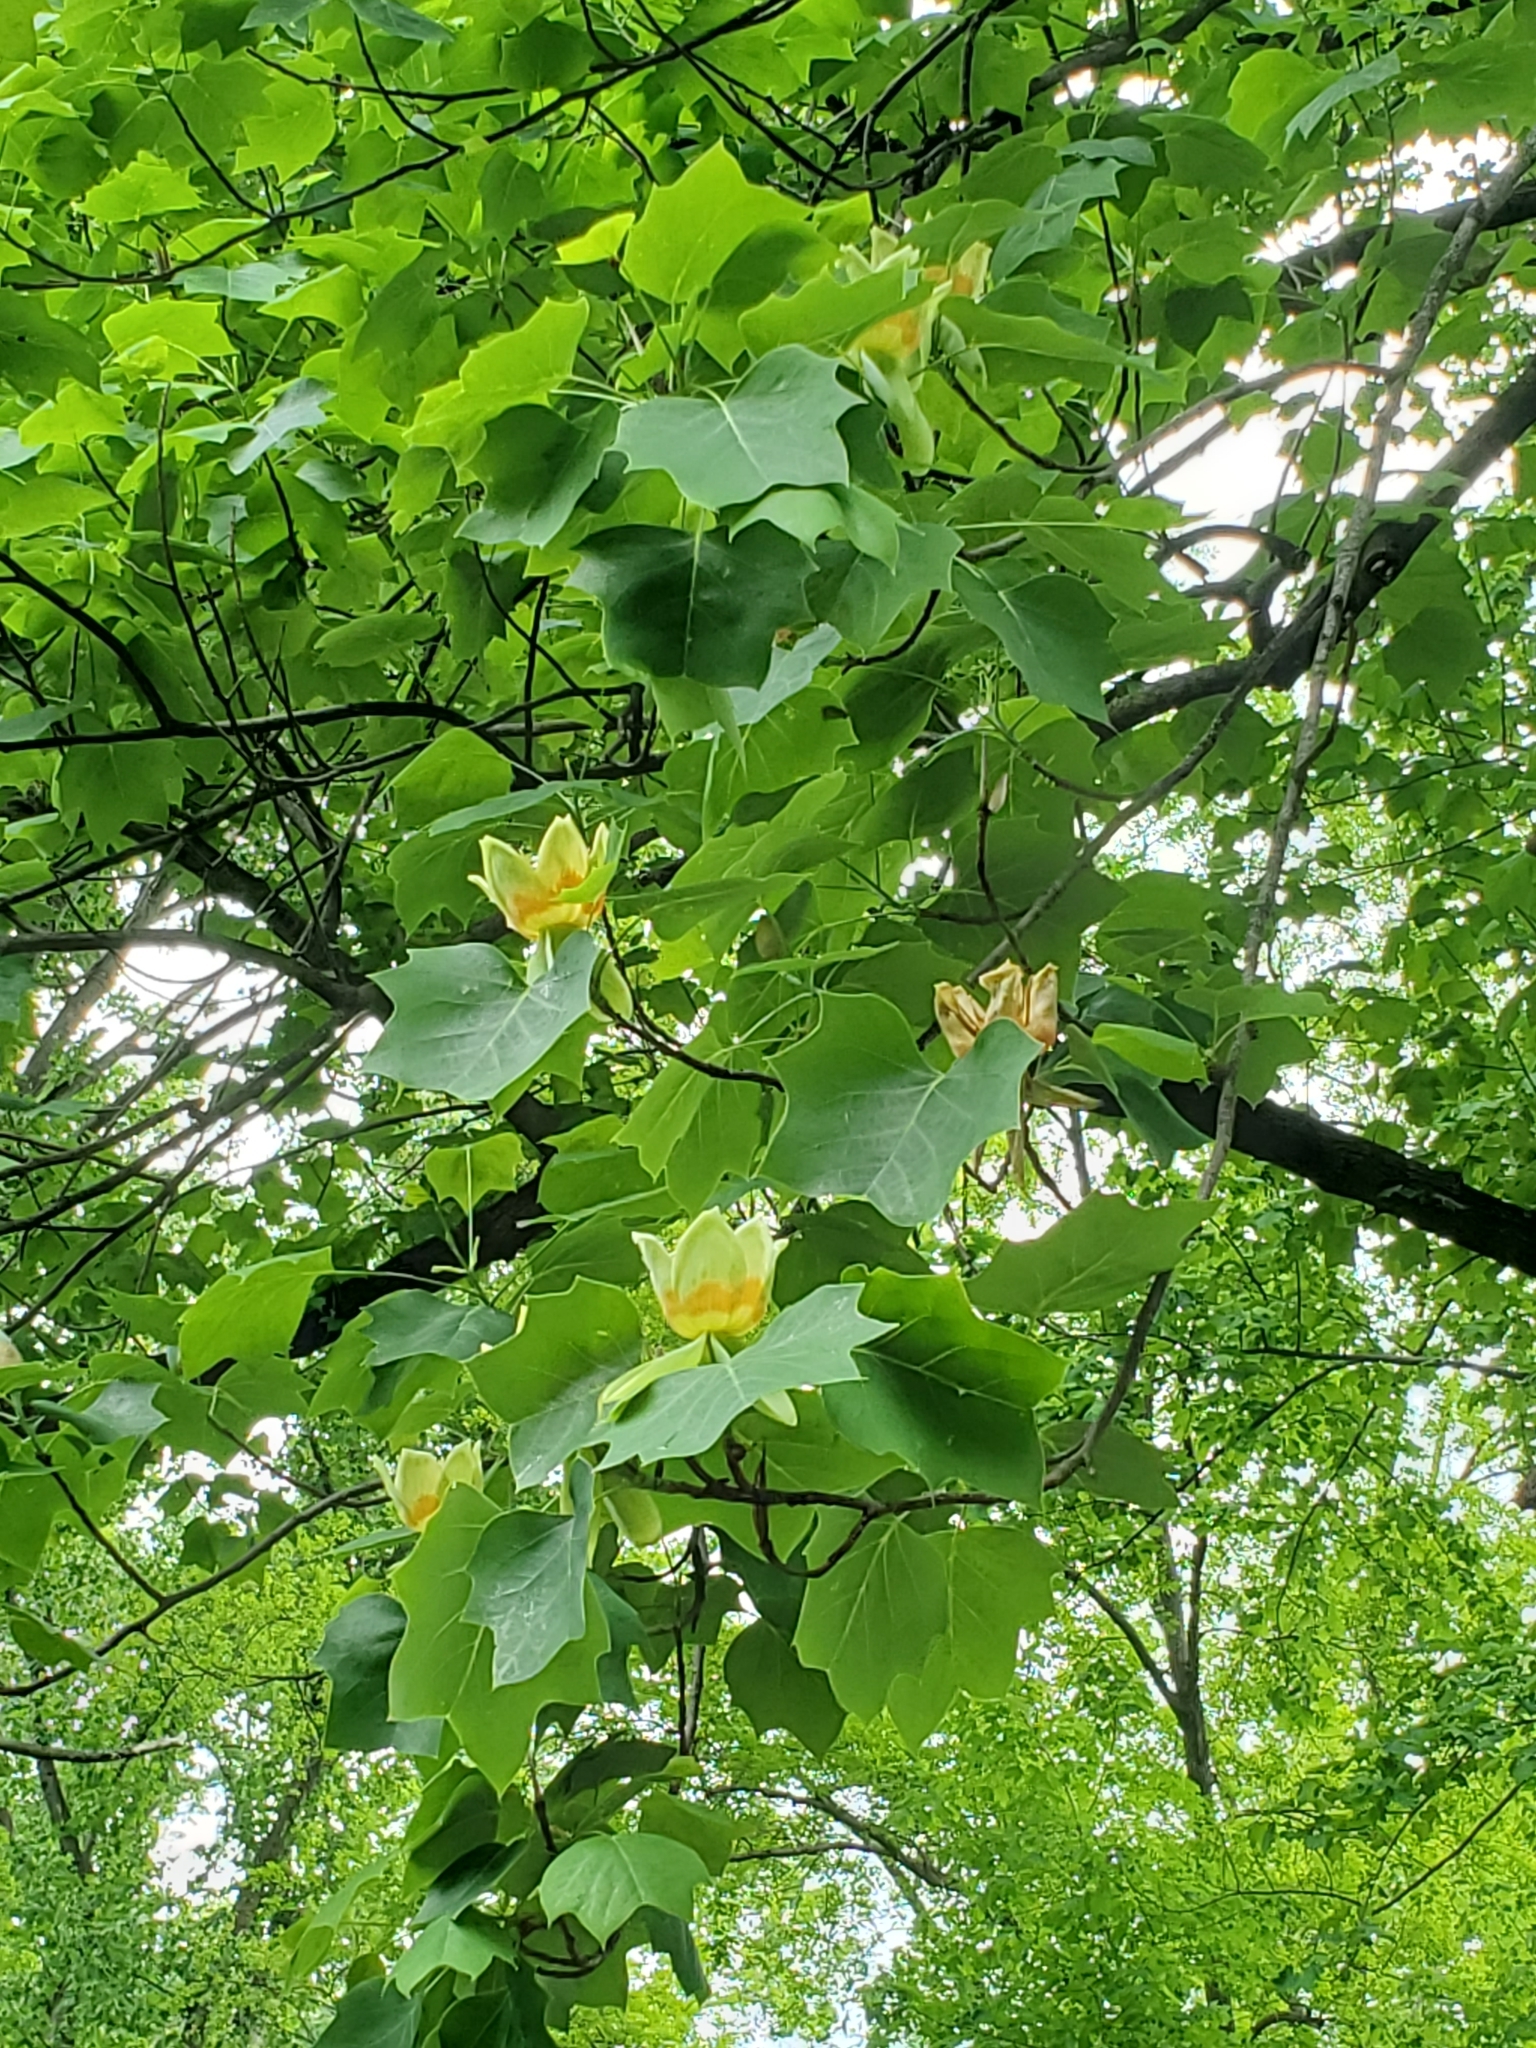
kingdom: Plantae
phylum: Tracheophyta
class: Magnoliopsida
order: Magnoliales
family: Magnoliaceae
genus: Liriodendron
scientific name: Liriodendron tulipifera
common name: Tulip tree
